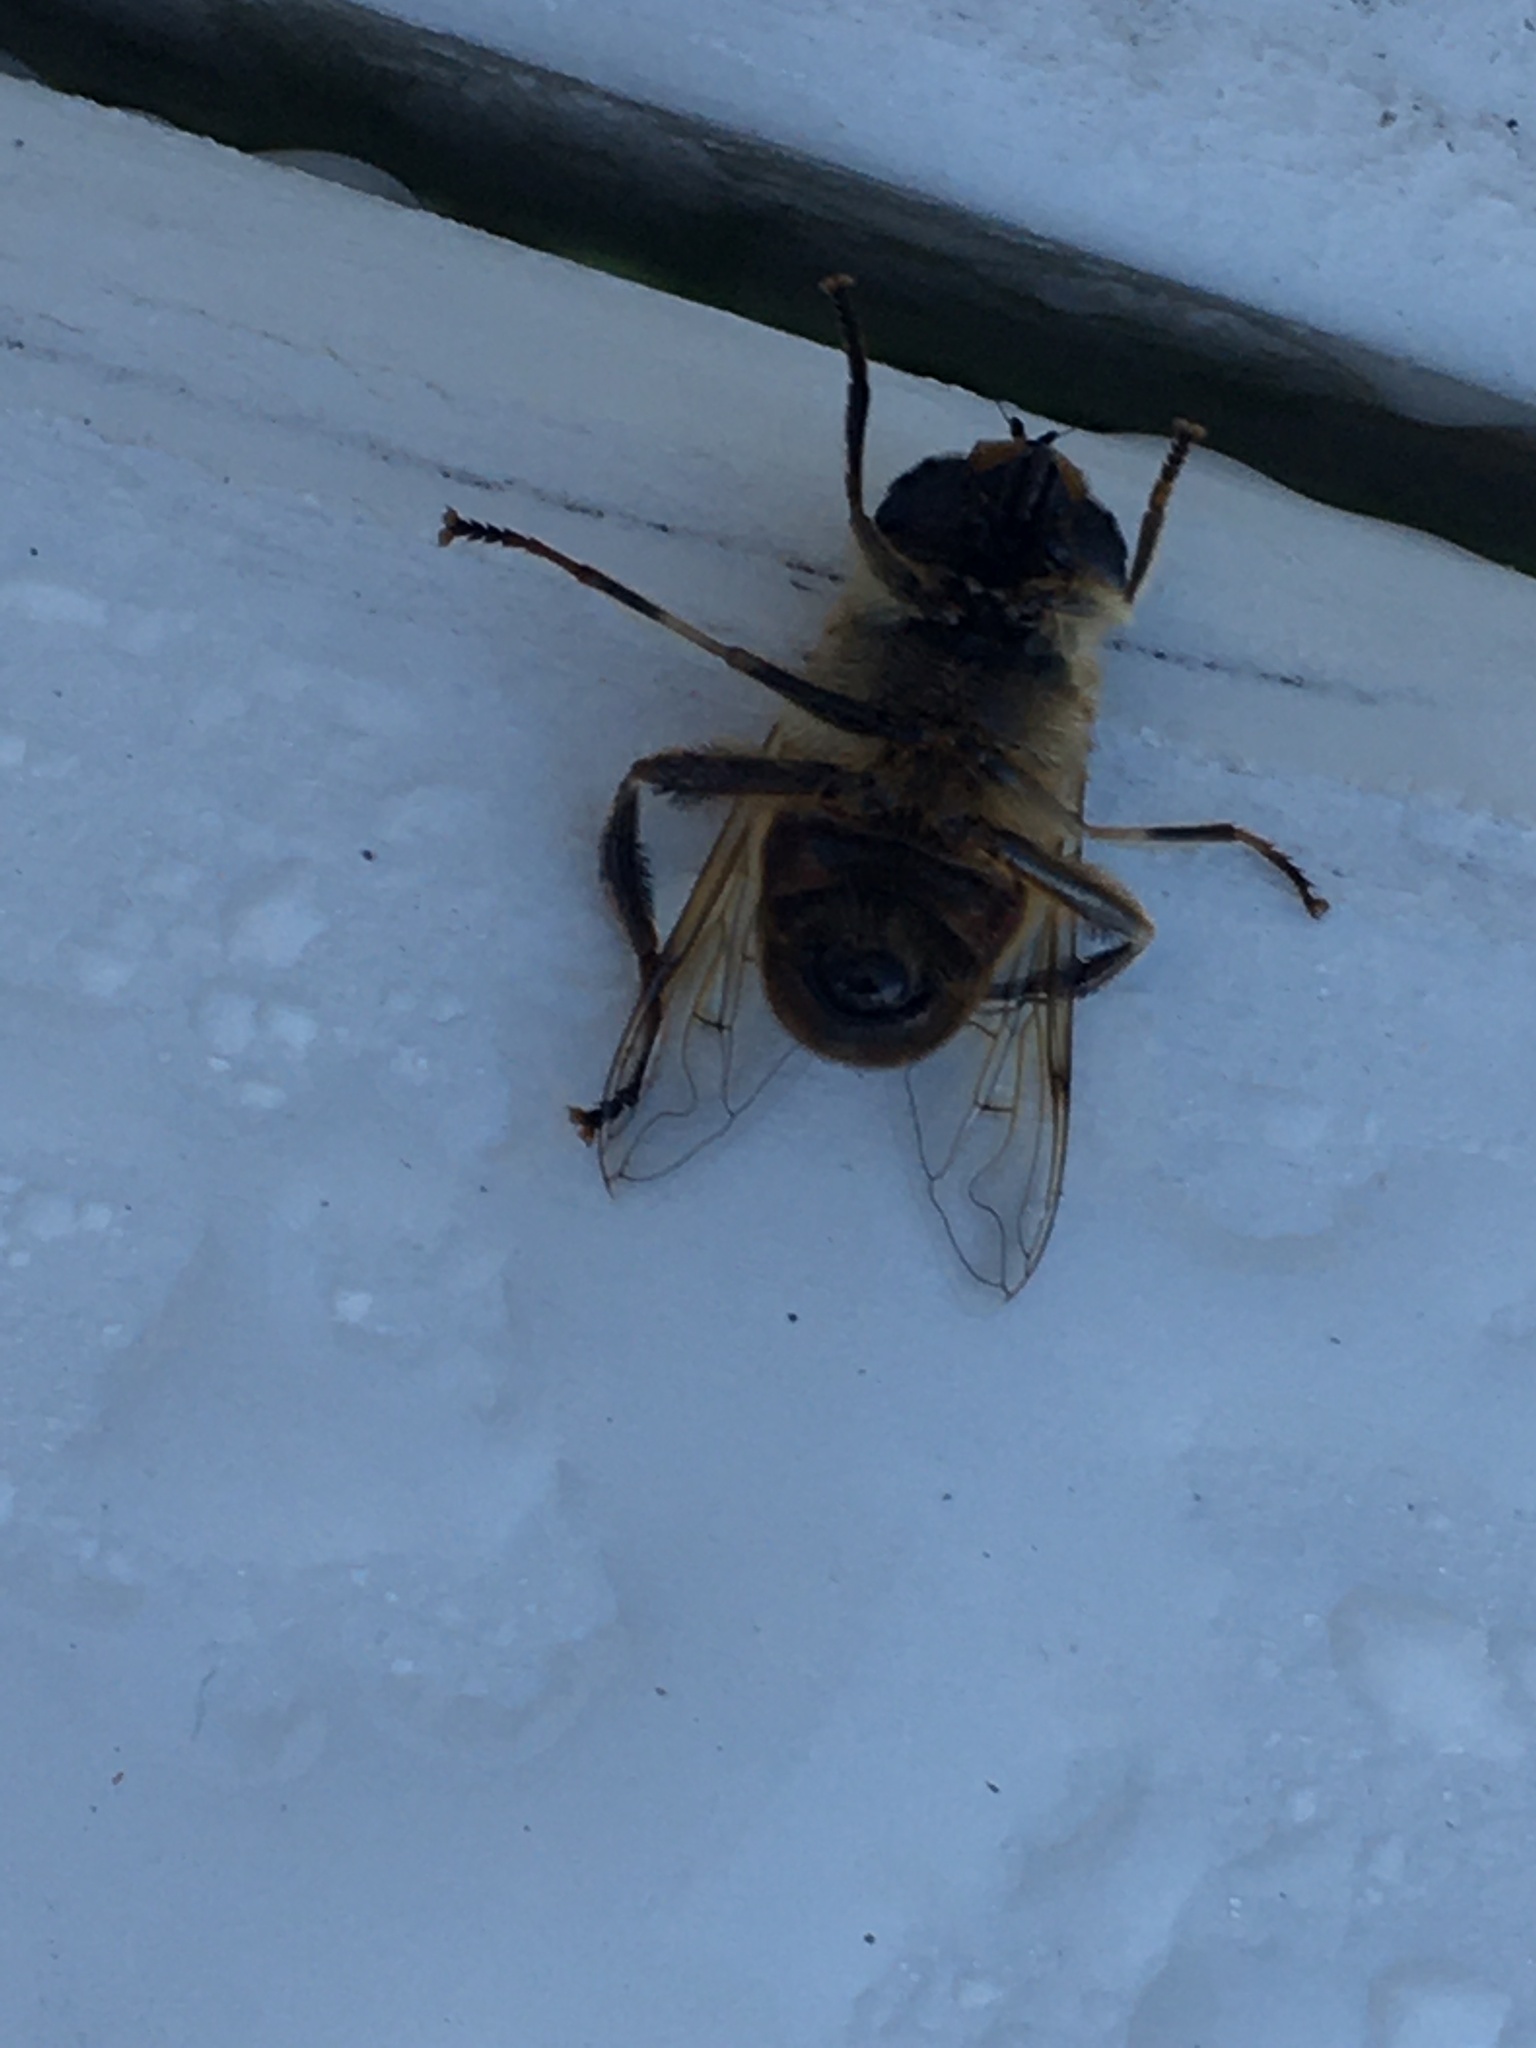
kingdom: Animalia
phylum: Arthropoda
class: Insecta
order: Diptera
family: Syrphidae
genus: Eristalis
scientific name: Eristalis tenax
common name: Drone fly
